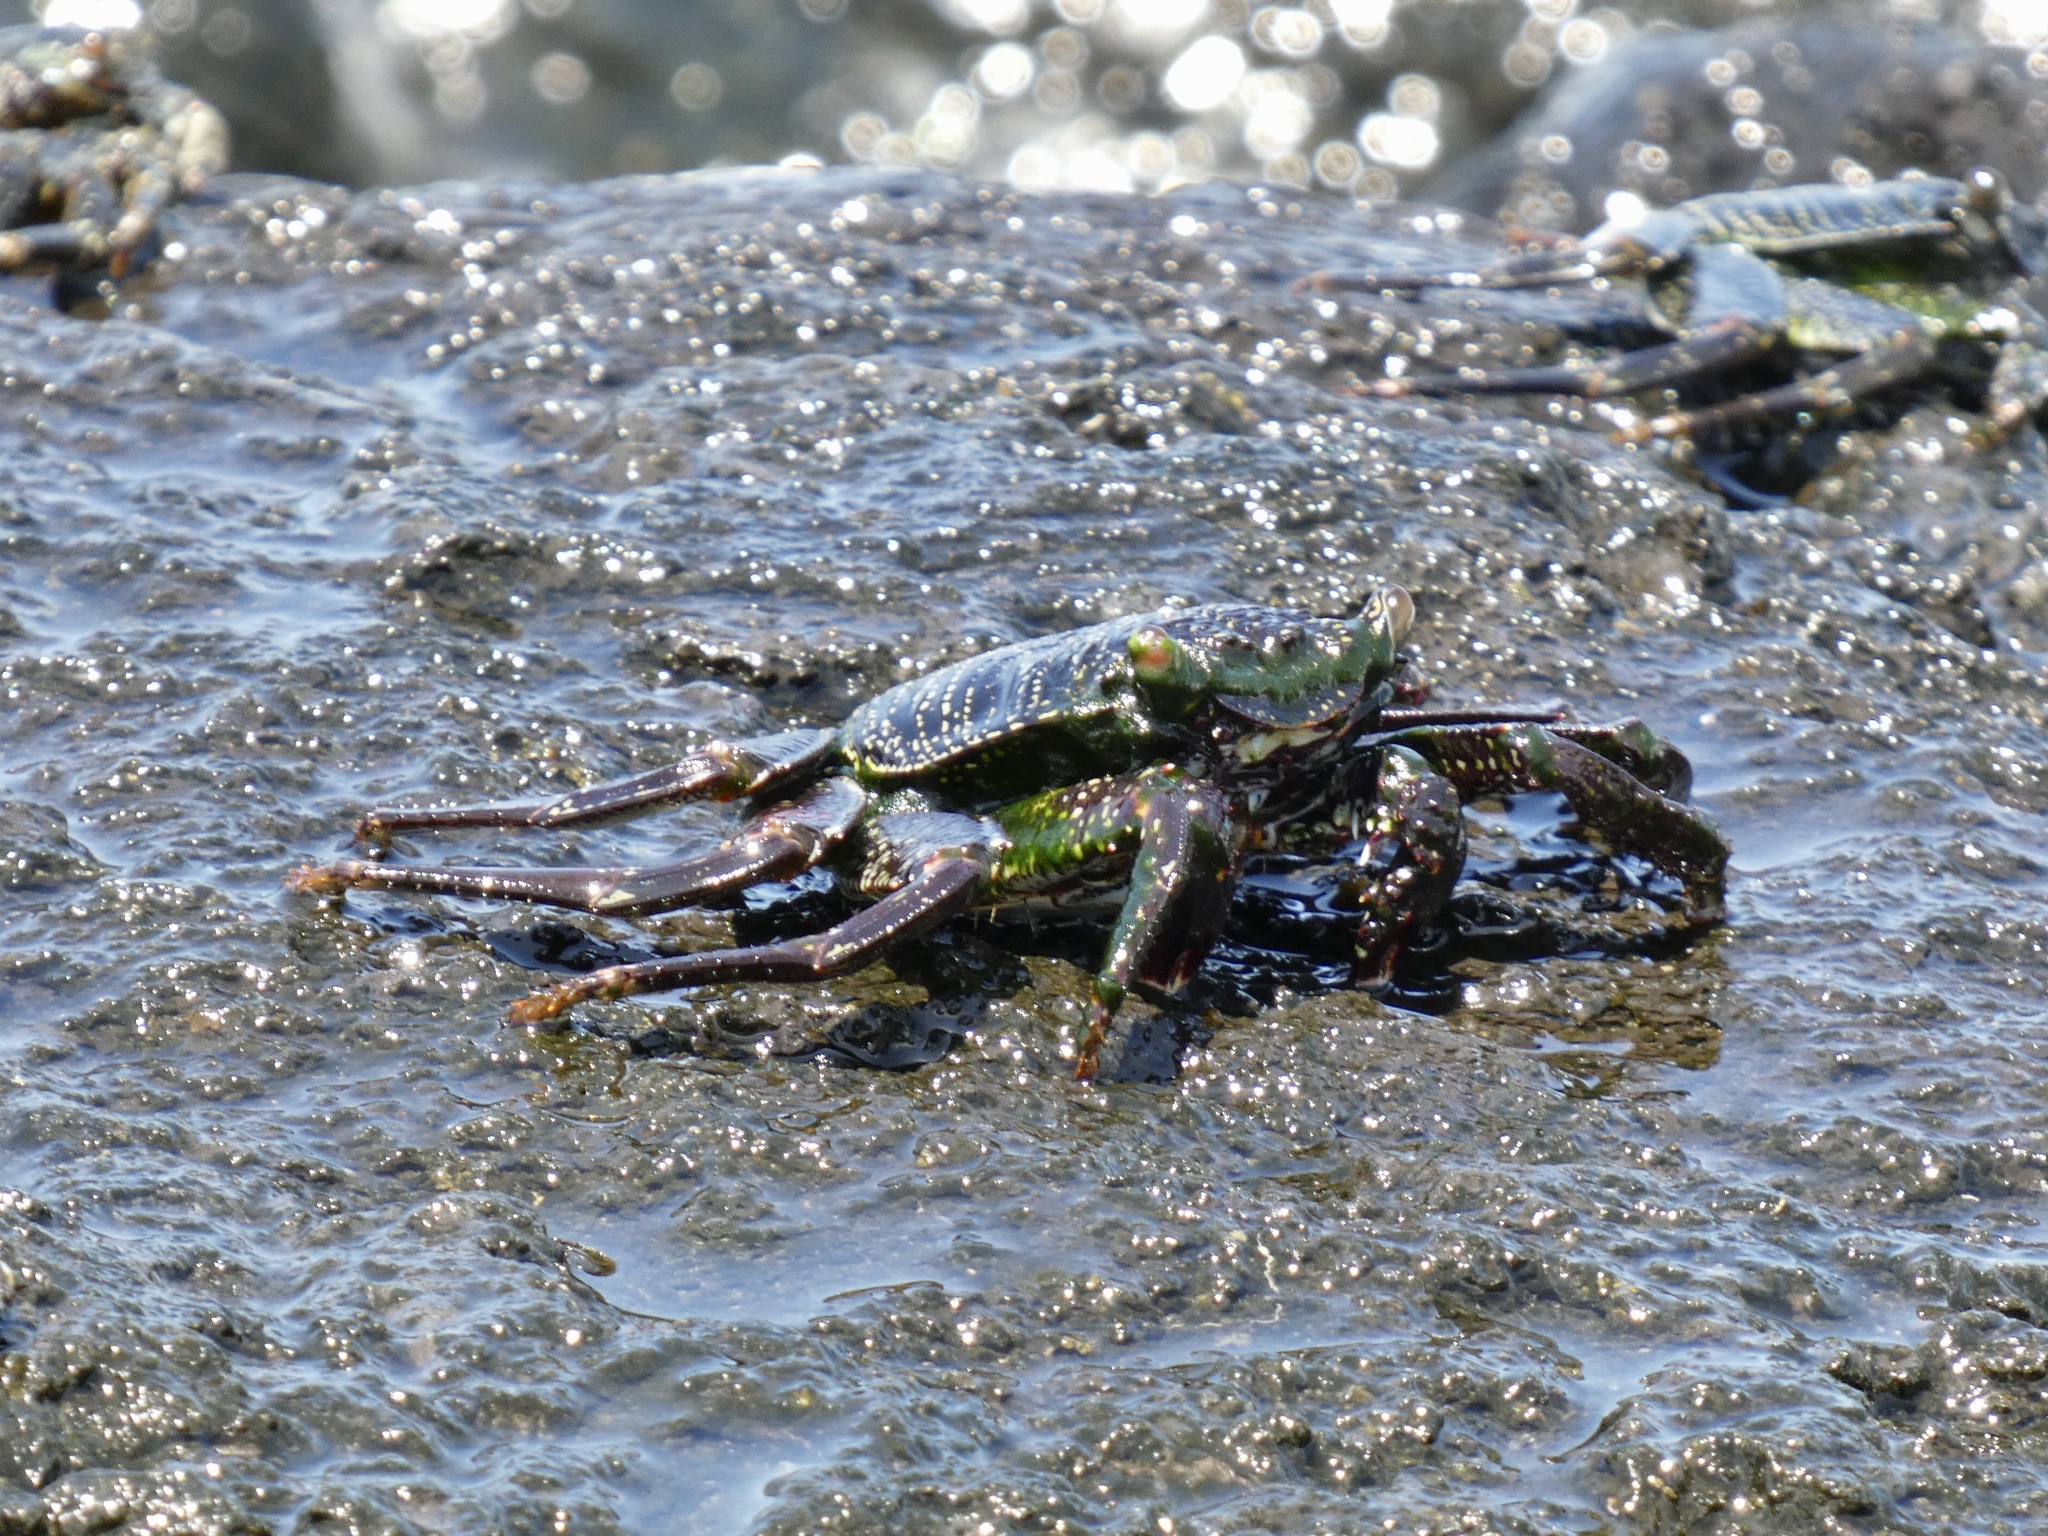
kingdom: Animalia
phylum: Arthropoda
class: Malacostraca
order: Decapoda
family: Grapsidae
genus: Grapsus
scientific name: Grapsus tenuicrustatus
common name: Natal lightfoot crab
